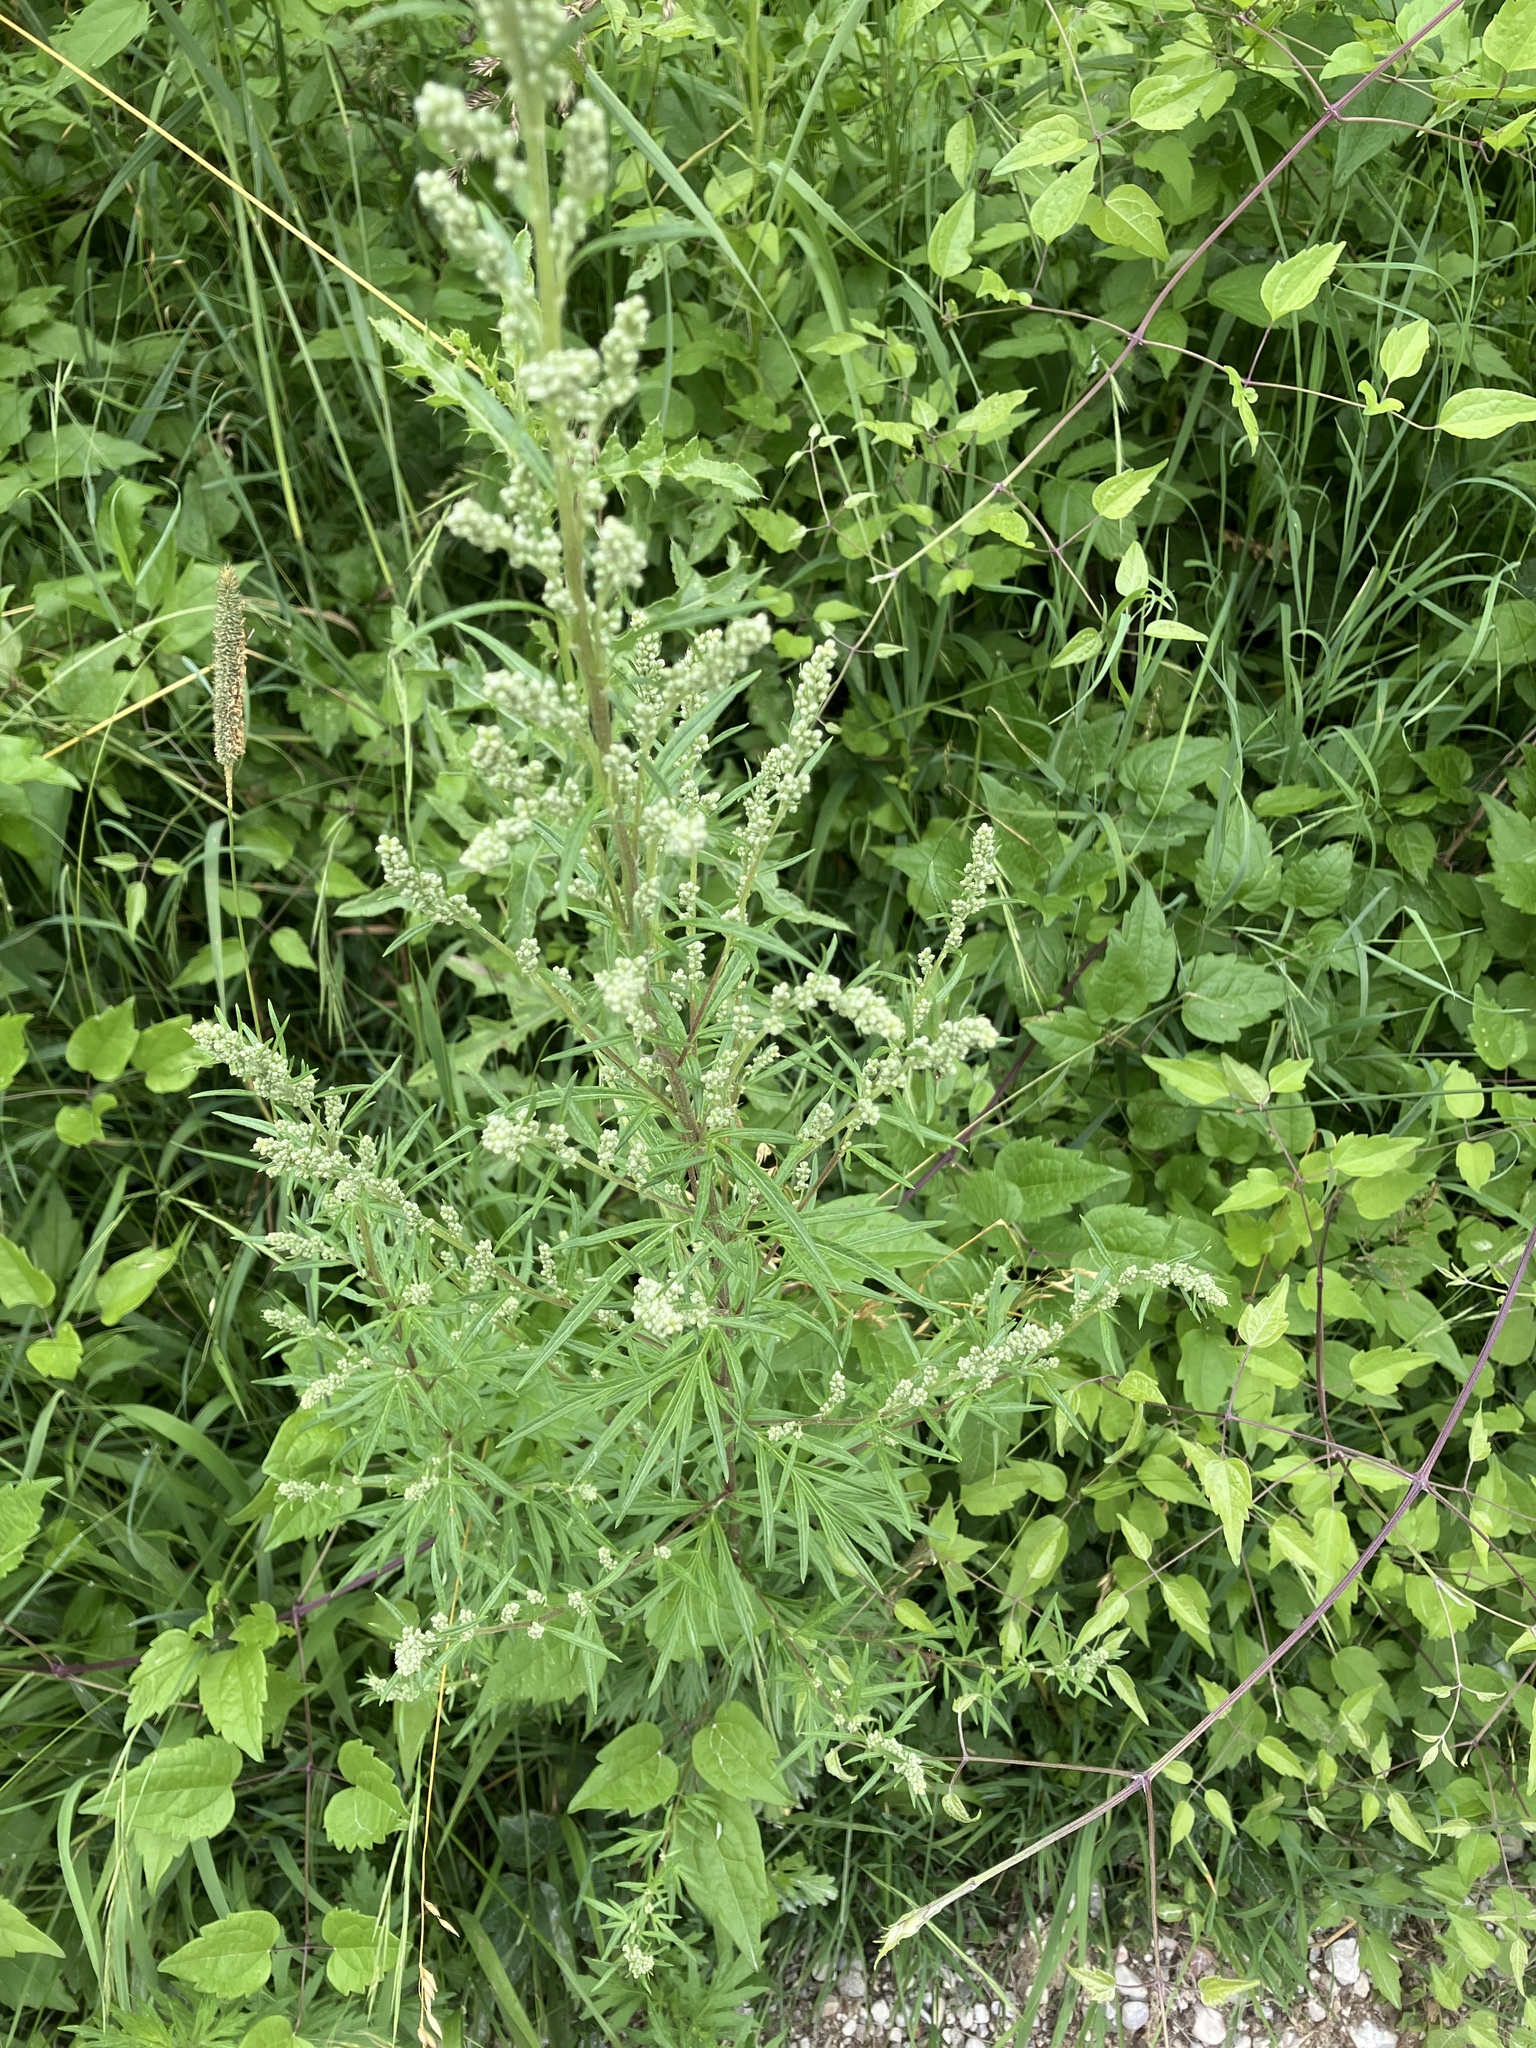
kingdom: Plantae
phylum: Tracheophyta
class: Magnoliopsida
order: Asterales
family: Asteraceae
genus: Artemisia
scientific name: Artemisia vulgaris
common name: Mugwort
